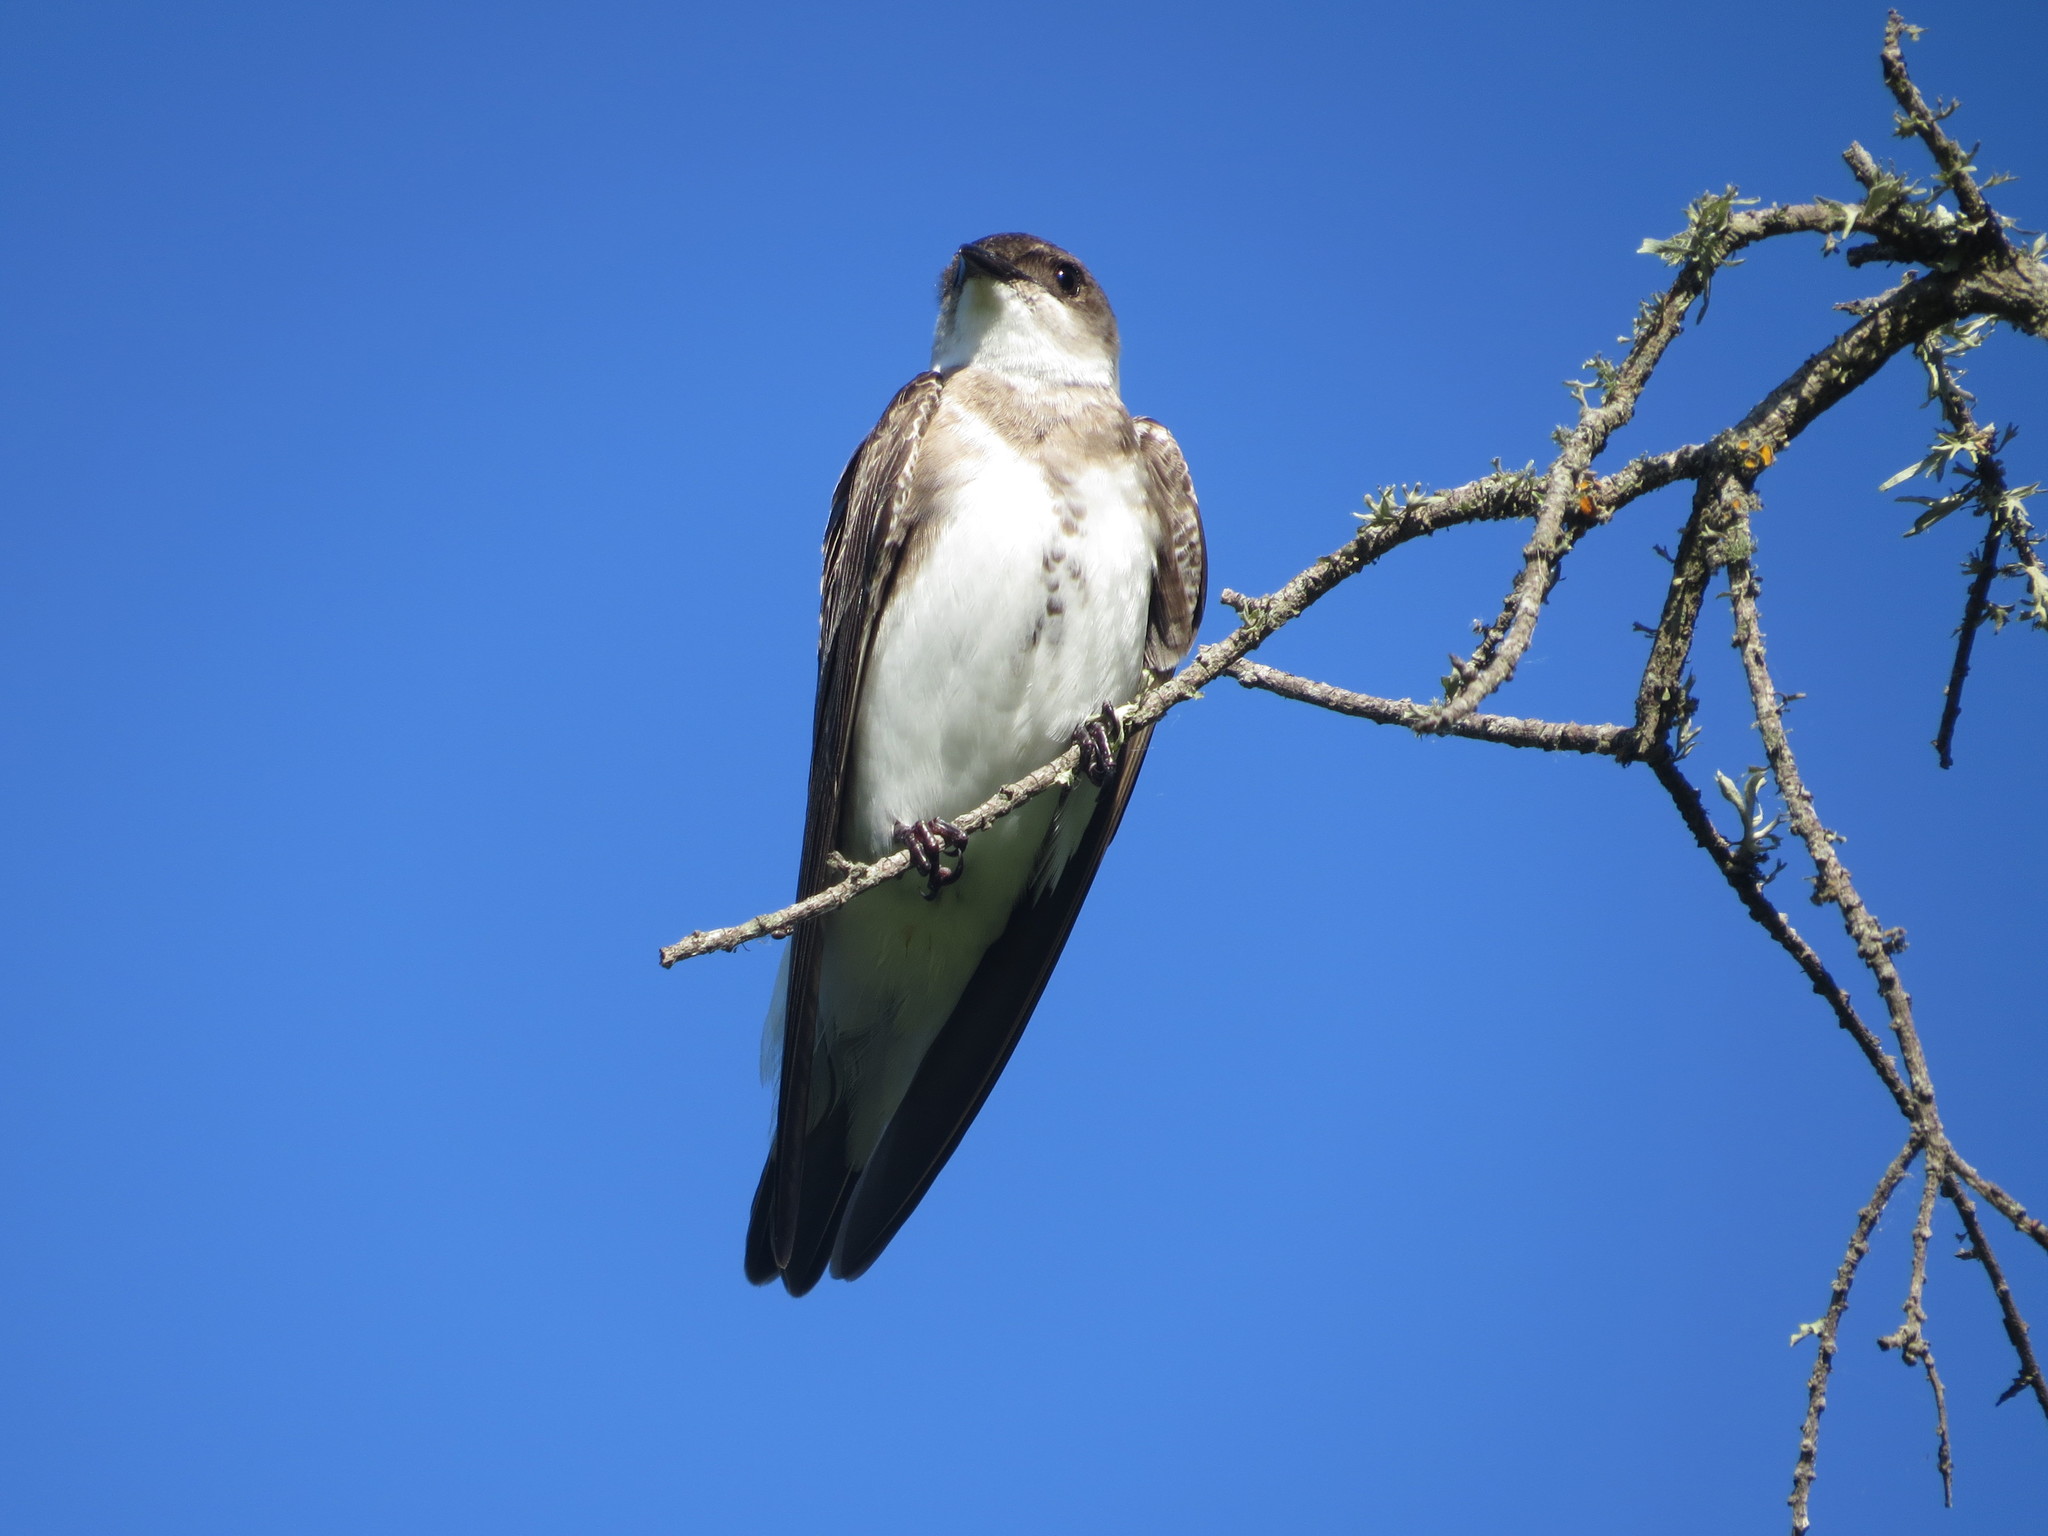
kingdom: Animalia
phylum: Chordata
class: Aves
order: Passeriformes
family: Hirundinidae
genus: Progne
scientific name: Progne tapera
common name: Brown-chested martin
